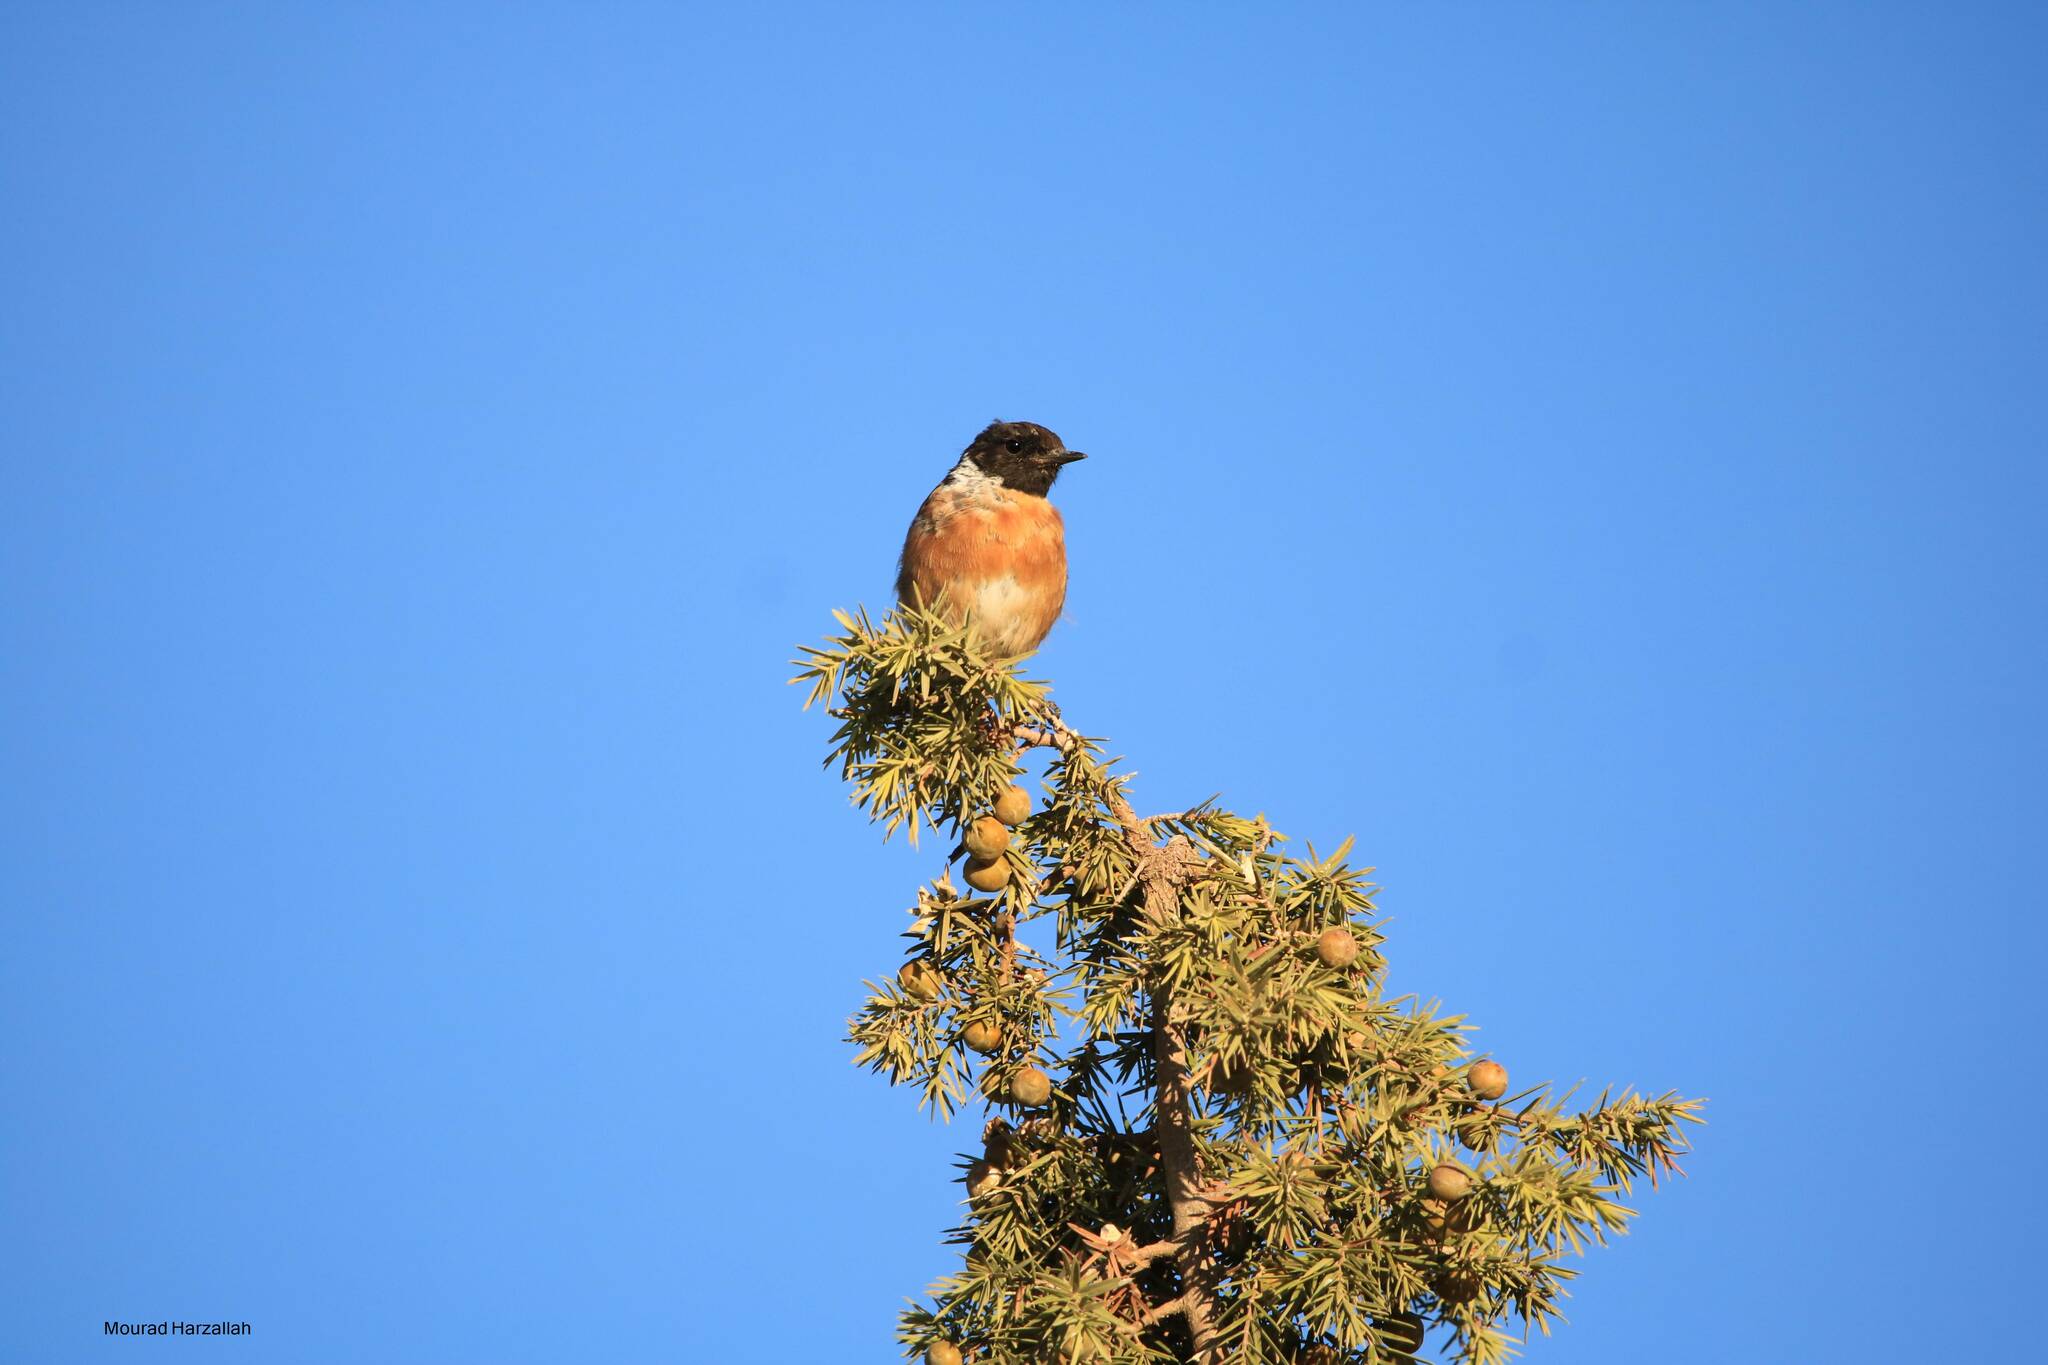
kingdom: Animalia
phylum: Chordata
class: Aves
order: Passeriformes
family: Muscicapidae
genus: Saxicola
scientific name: Saxicola rubicola
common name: European stonechat
